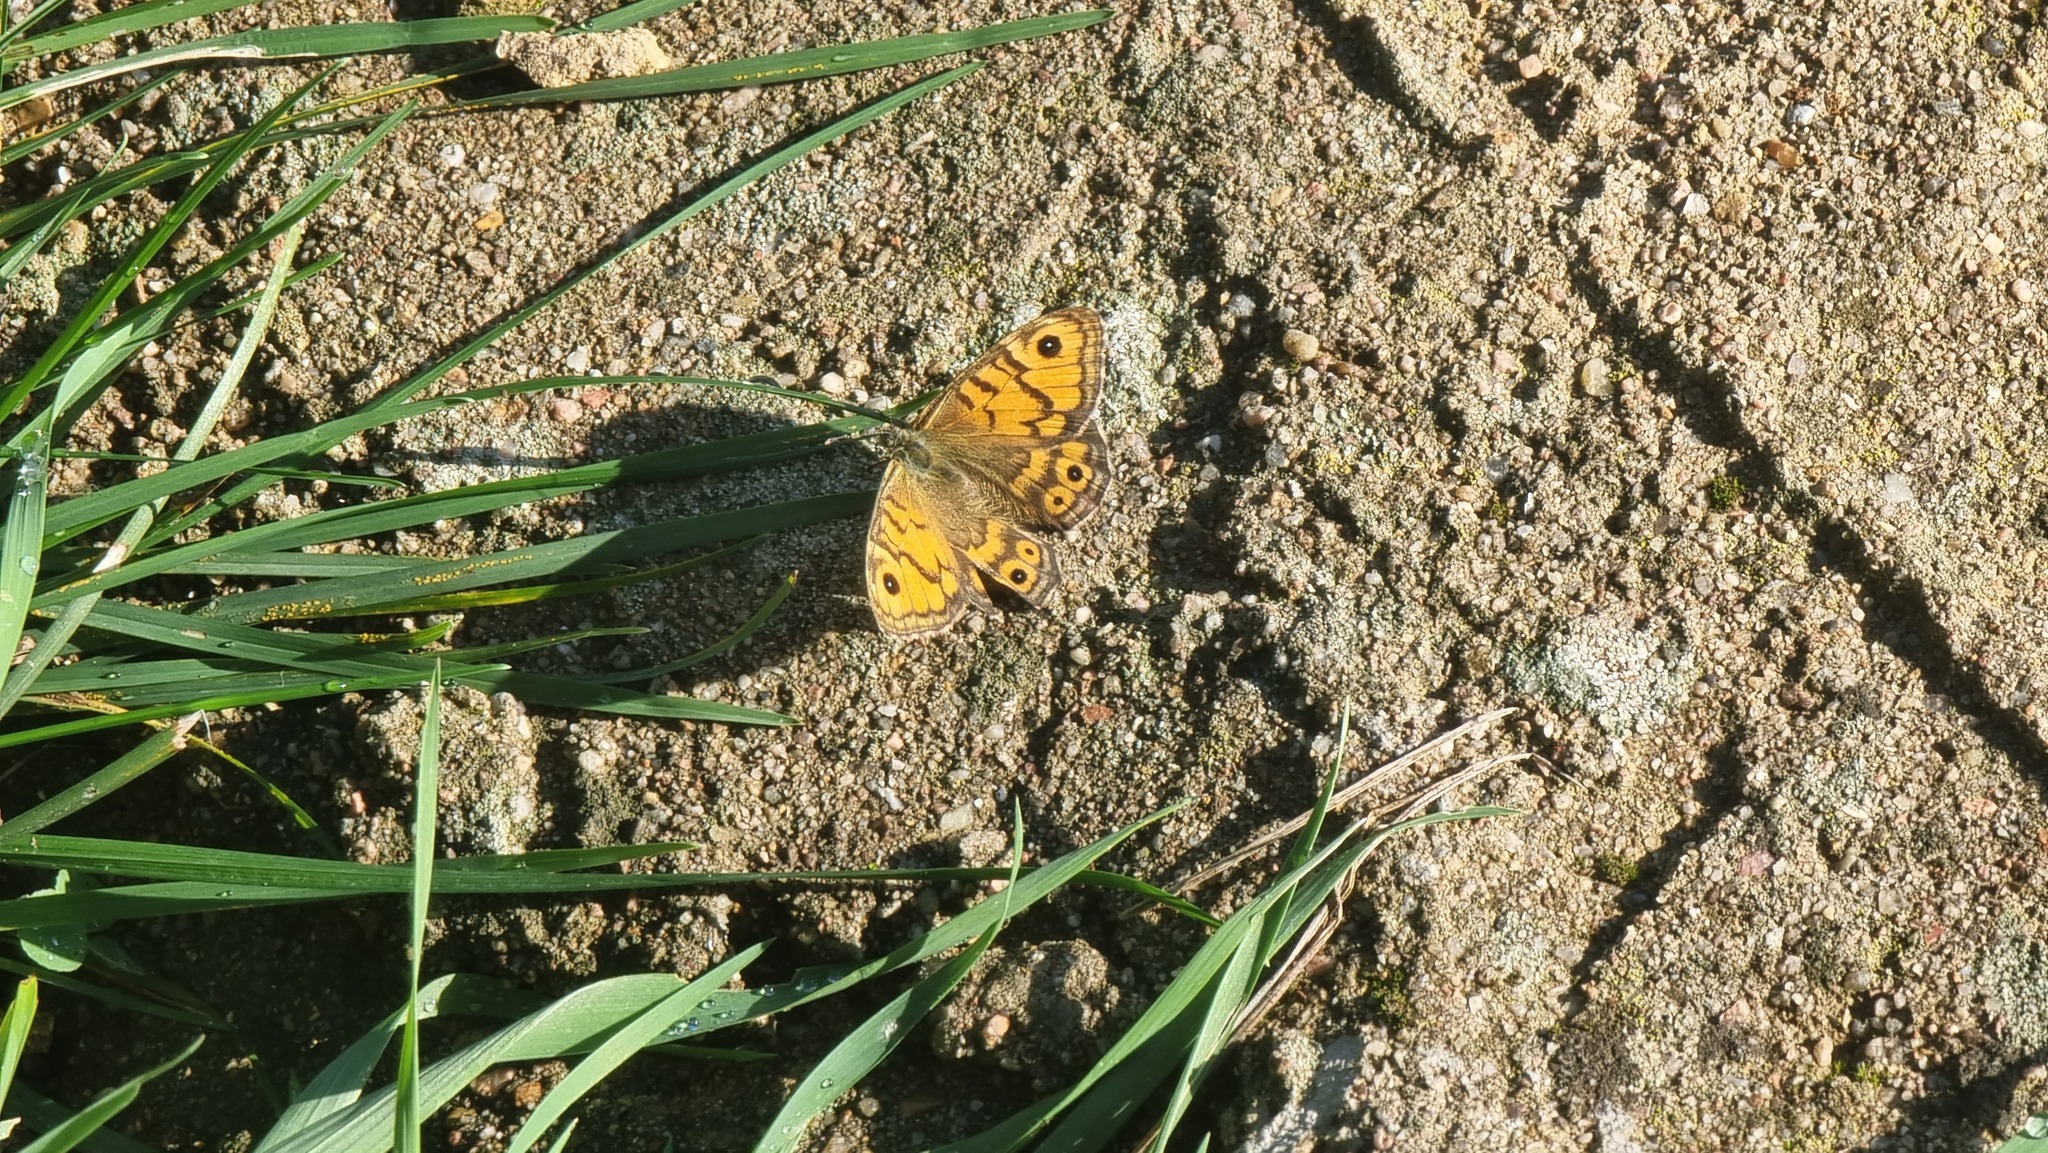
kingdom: Animalia
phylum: Arthropoda
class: Insecta
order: Lepidoptera
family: Nymphalidae
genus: Pararge
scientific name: Pararge Lasiommata megera
